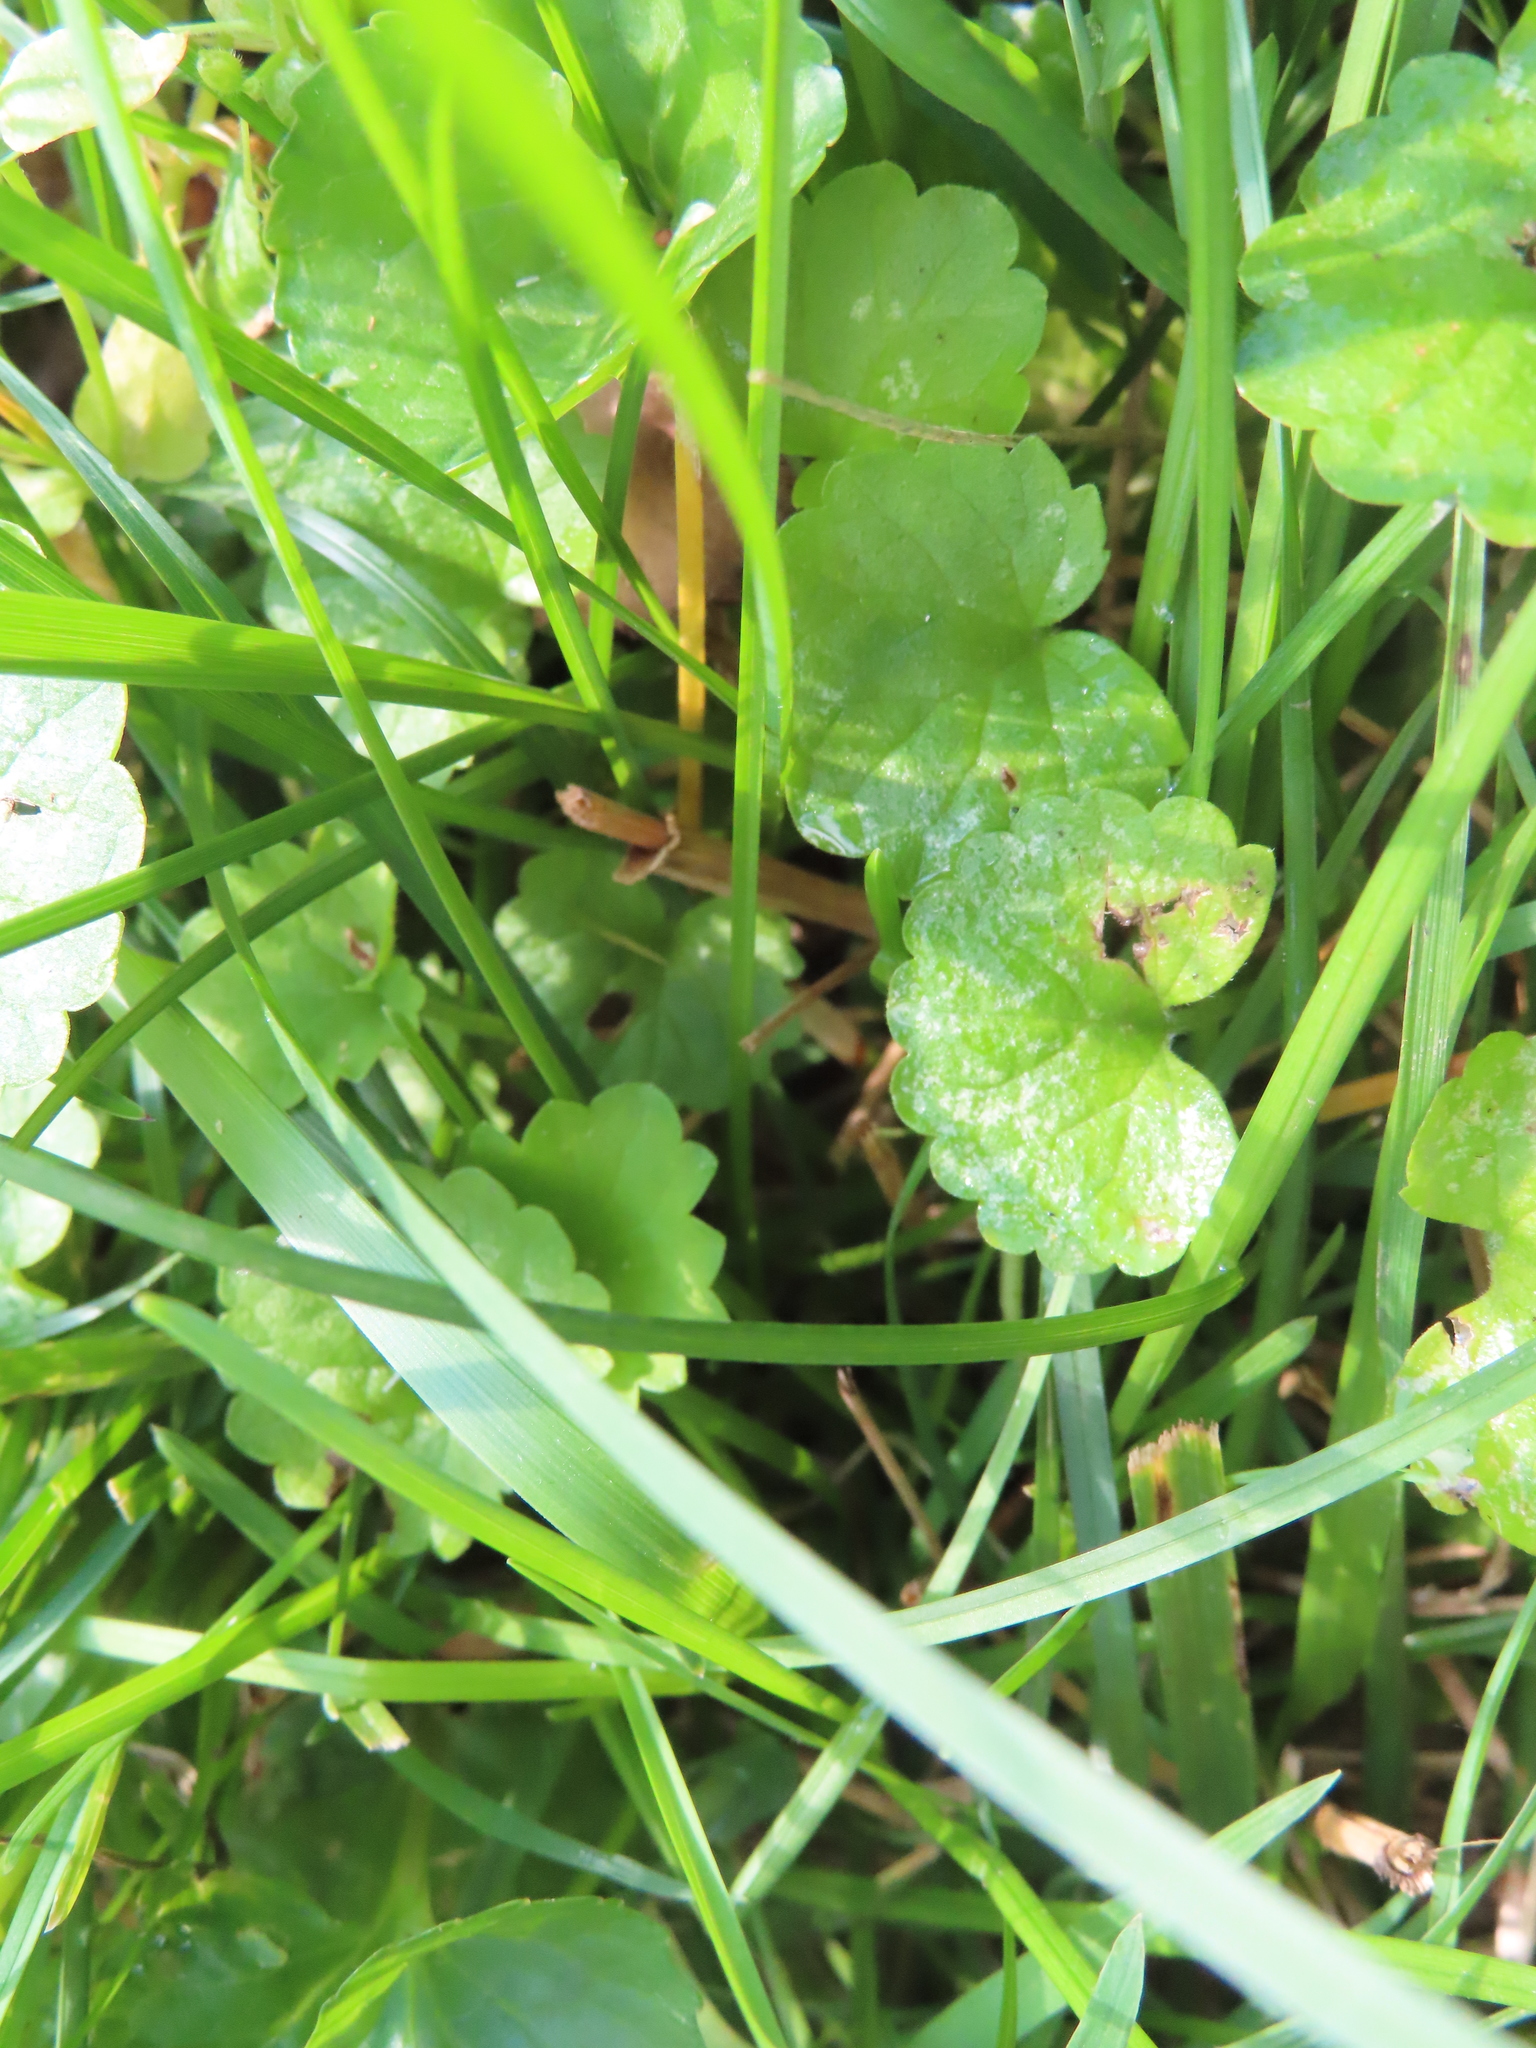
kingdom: Plantae
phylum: Tracheophyta
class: Magnoliopsida
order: Lamiales
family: Lamiaceae
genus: Glechoma
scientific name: Glechoma hederacea
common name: Ground ivy
